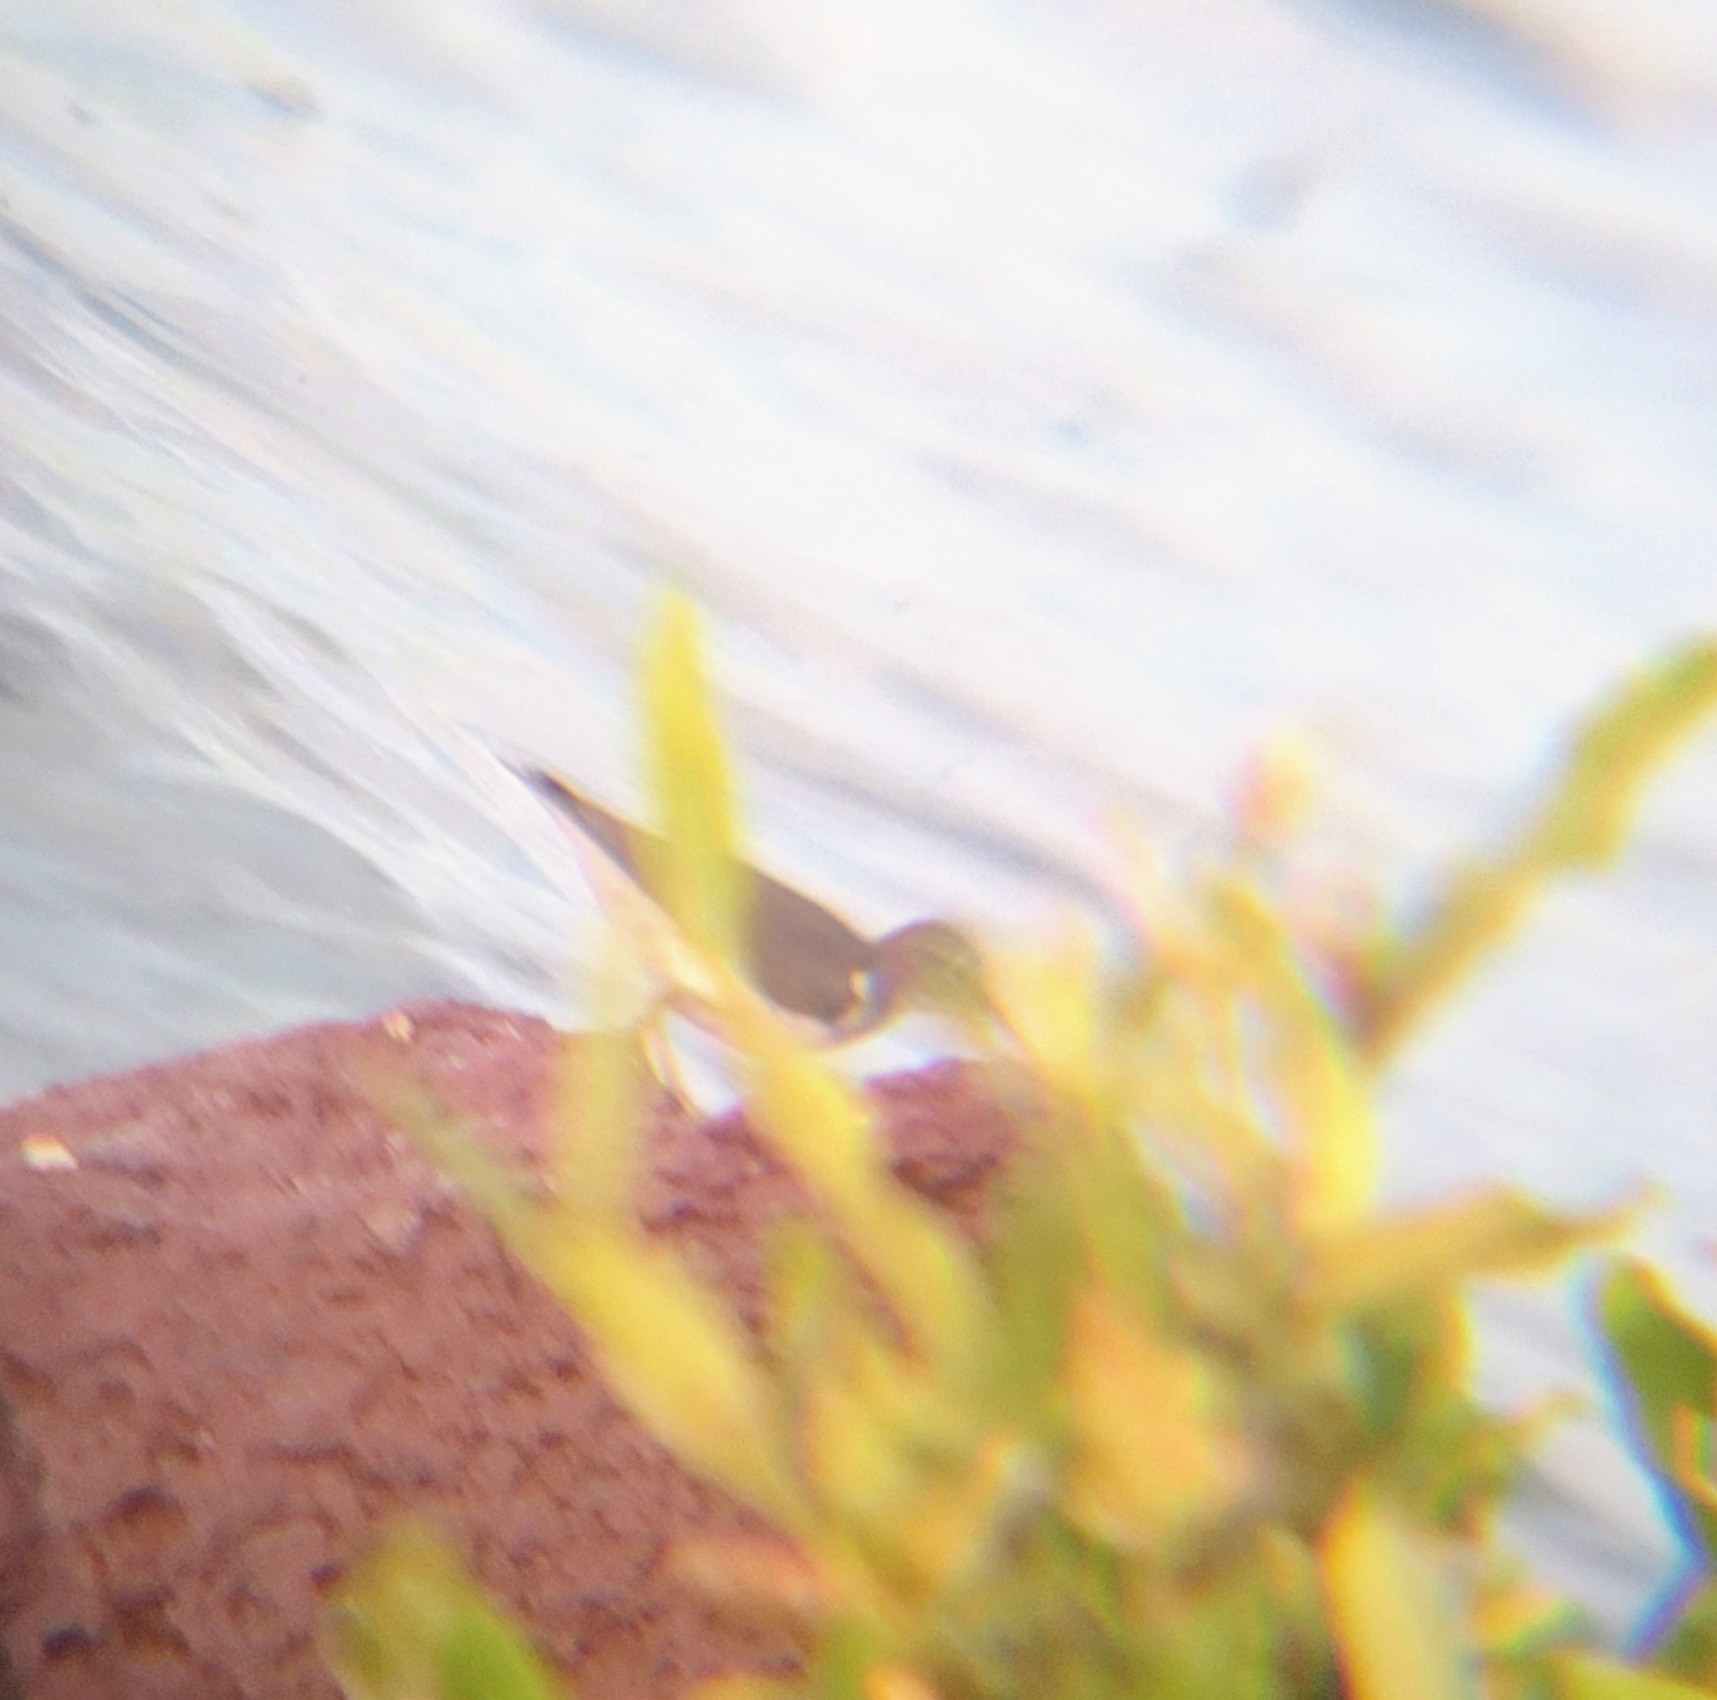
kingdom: Animalia
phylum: Chordata
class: Aves
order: Charadriiformes
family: Scolopacidae
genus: Actitis
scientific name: Actitis macularius
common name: Spotted sandpiper
